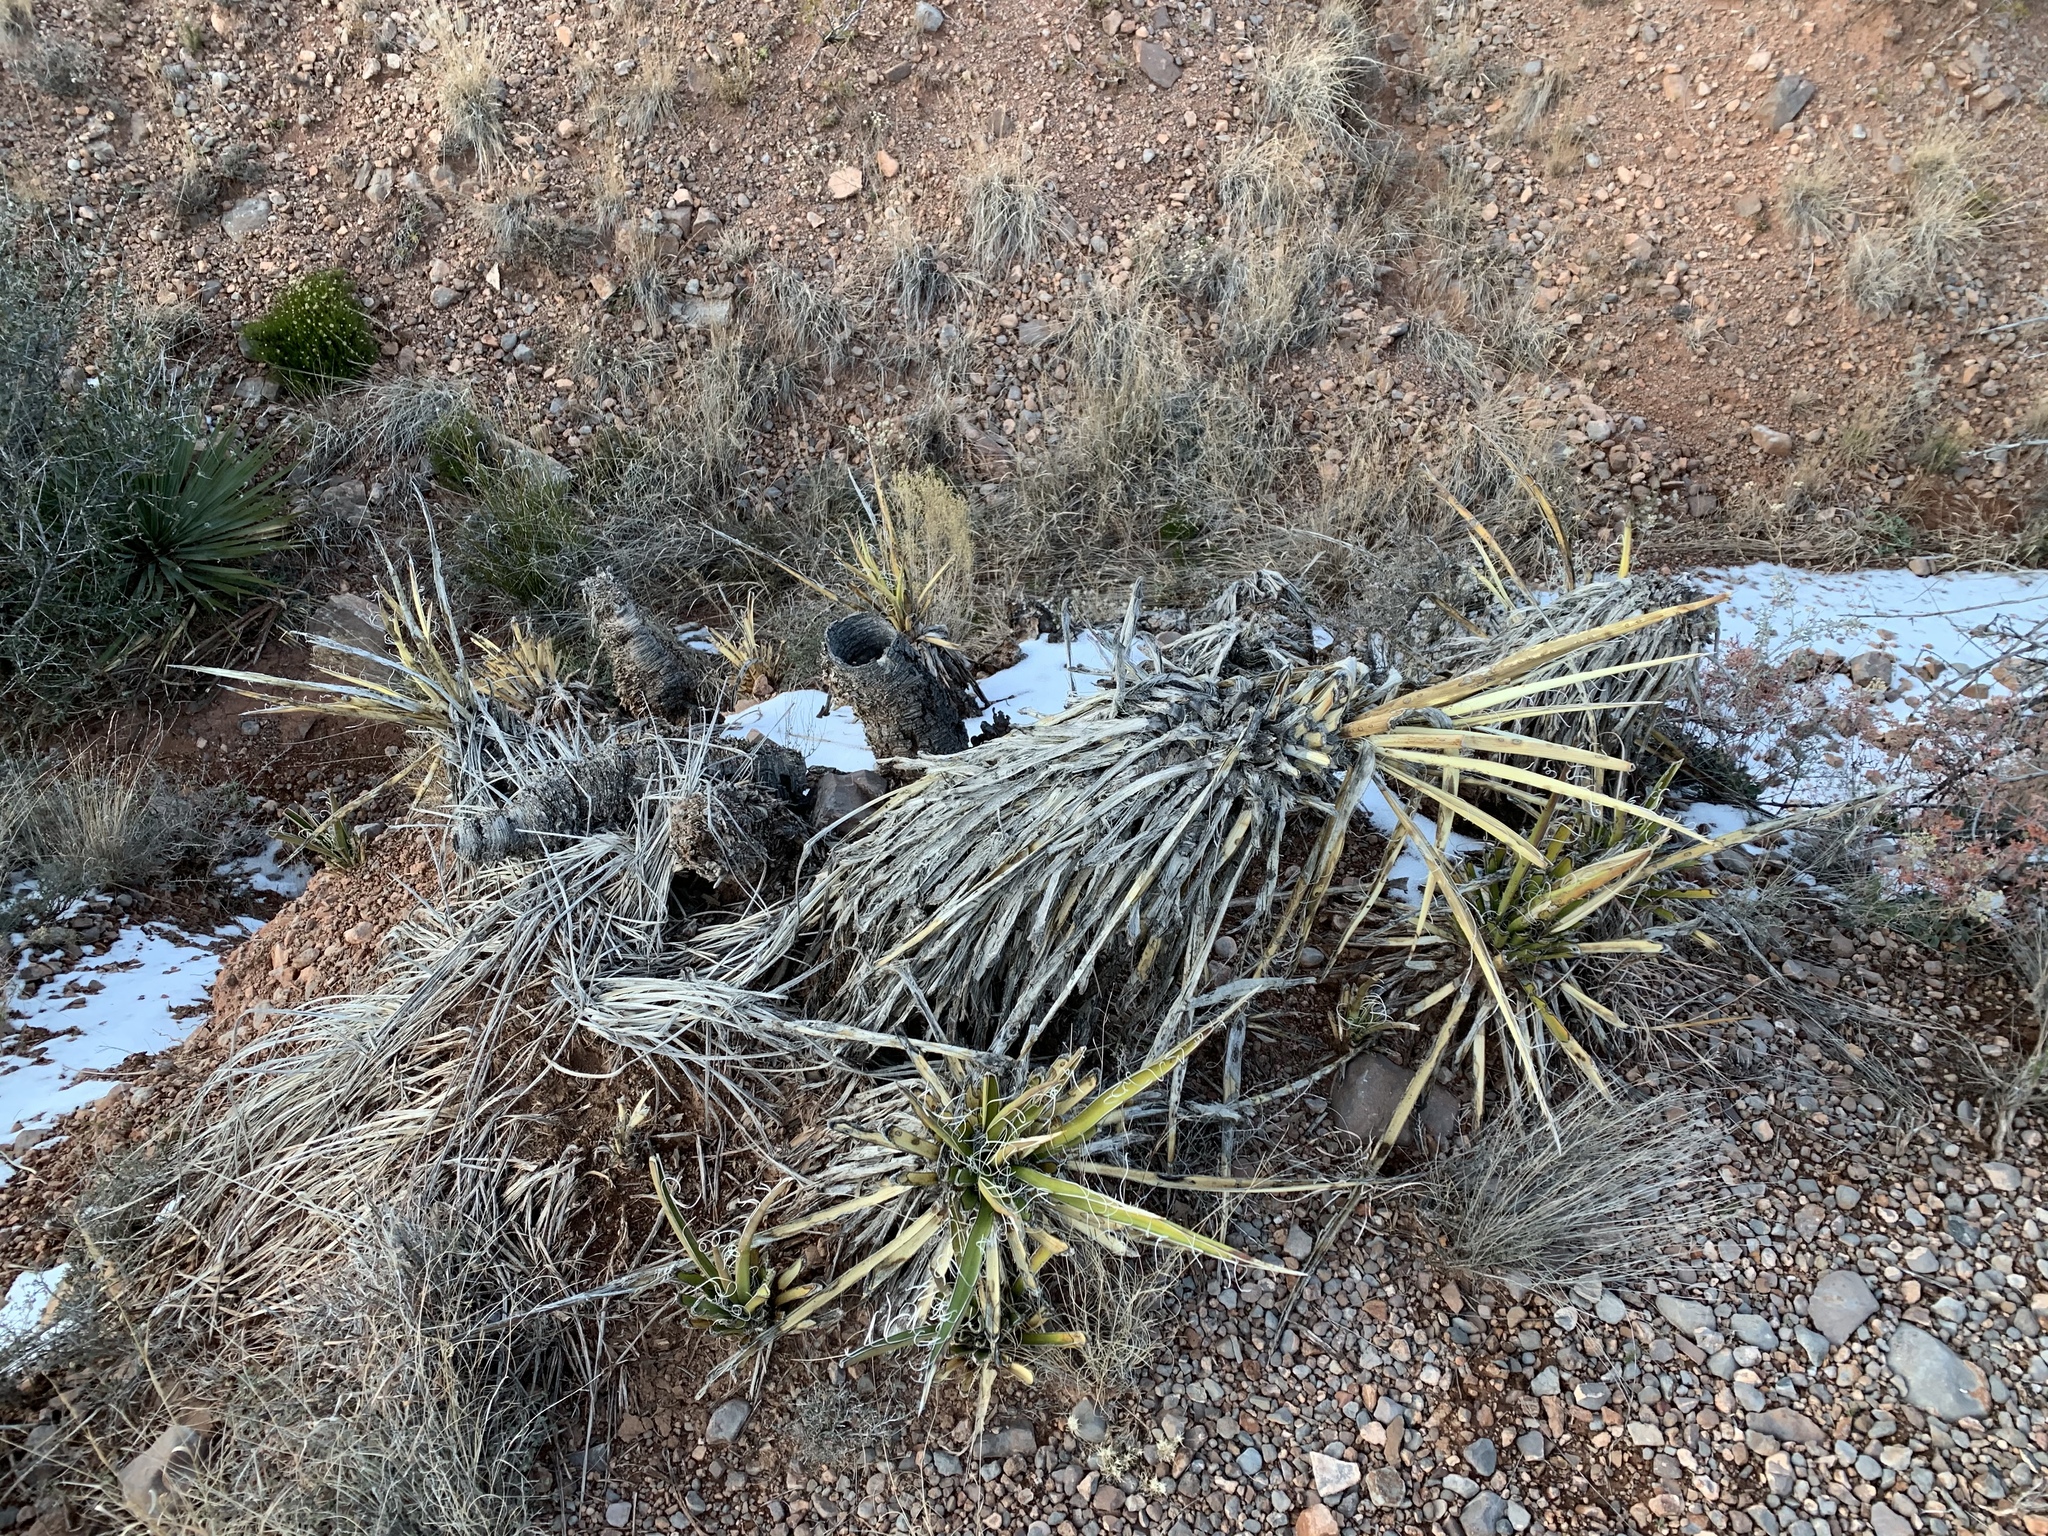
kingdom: Plantae
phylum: Tracheophyta
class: Liliopsida
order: Asparagales
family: Asparagaceae
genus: Yucca
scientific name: Yucca baccata
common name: Banana yucca
